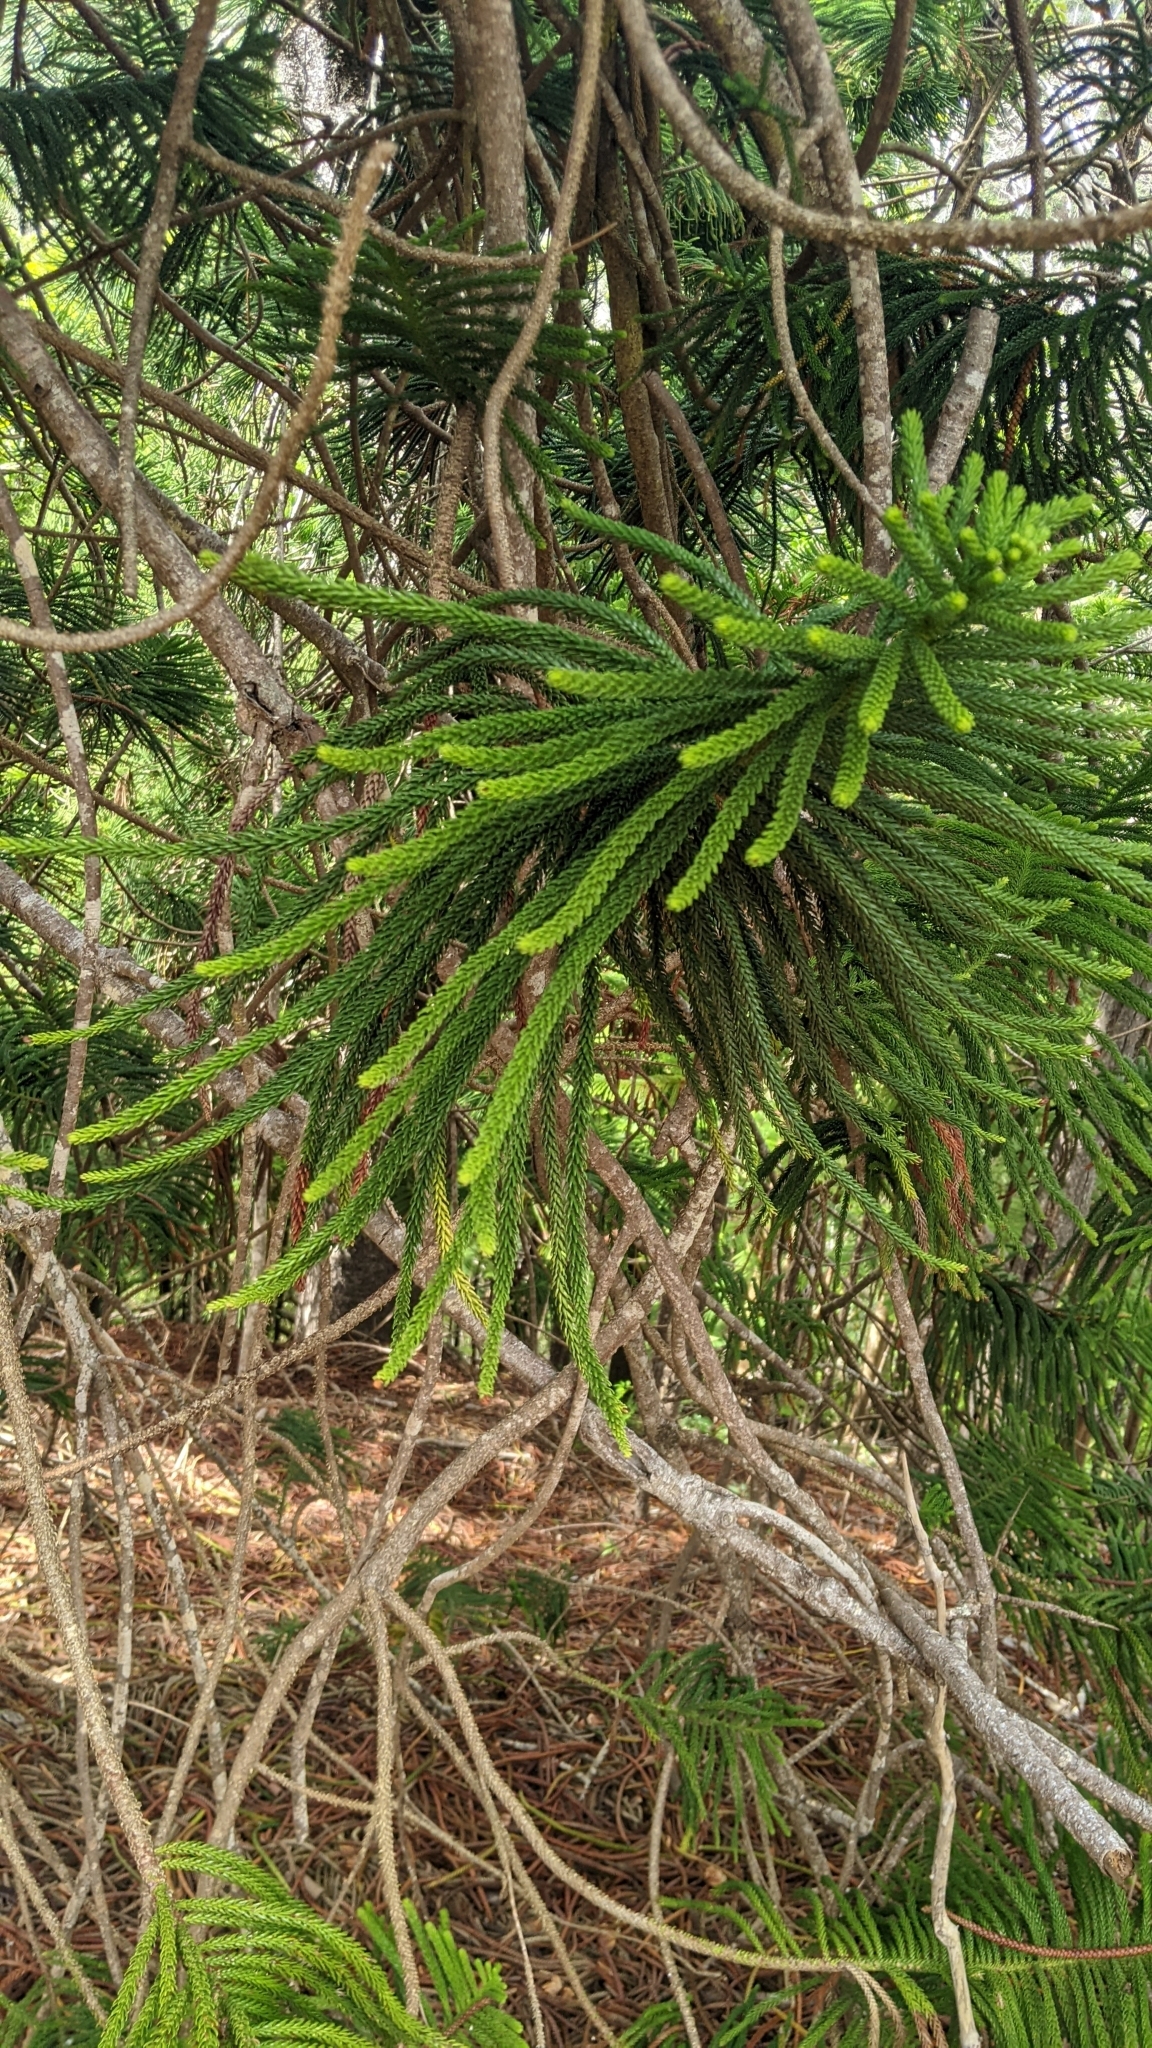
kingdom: Plantae
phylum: Tracheophyta
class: Pinopsida
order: Pinales
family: Araucariaceae
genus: Araucaria
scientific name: Araucaria columnaris
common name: Coral reef araucaria
